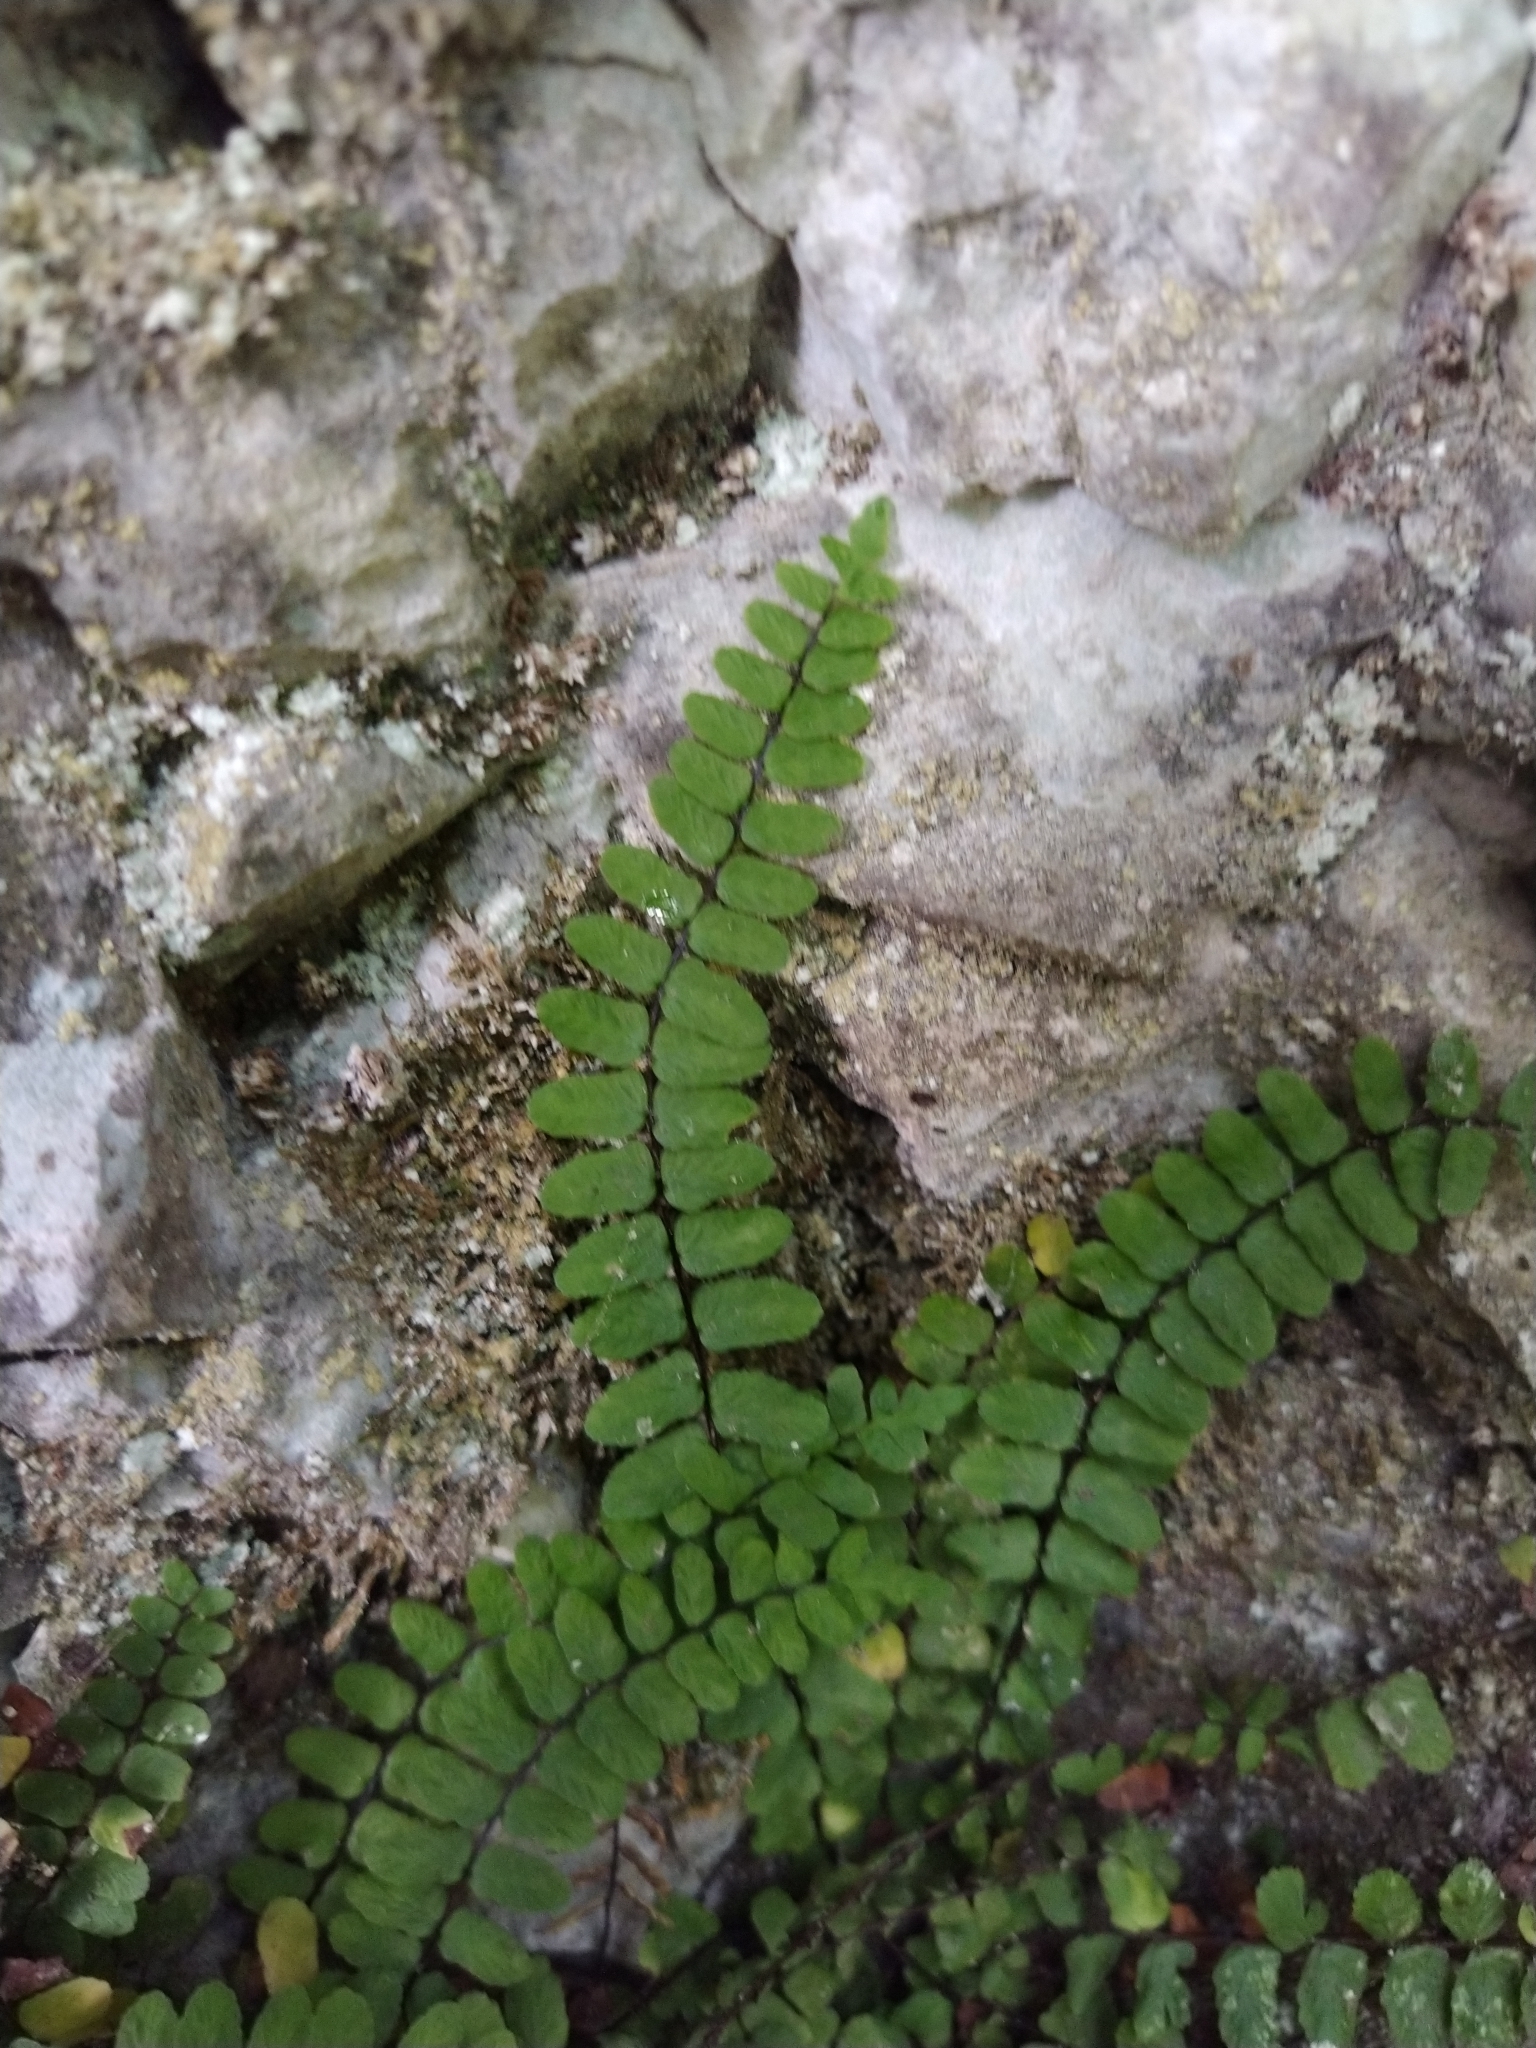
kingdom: Plantae
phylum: Tracheophyta
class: Polypodiopsida
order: Polypodiales
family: Aspleniaceae
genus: Asplenium
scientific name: Asplenium trichomanes
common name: Maidenhair spleenwort
